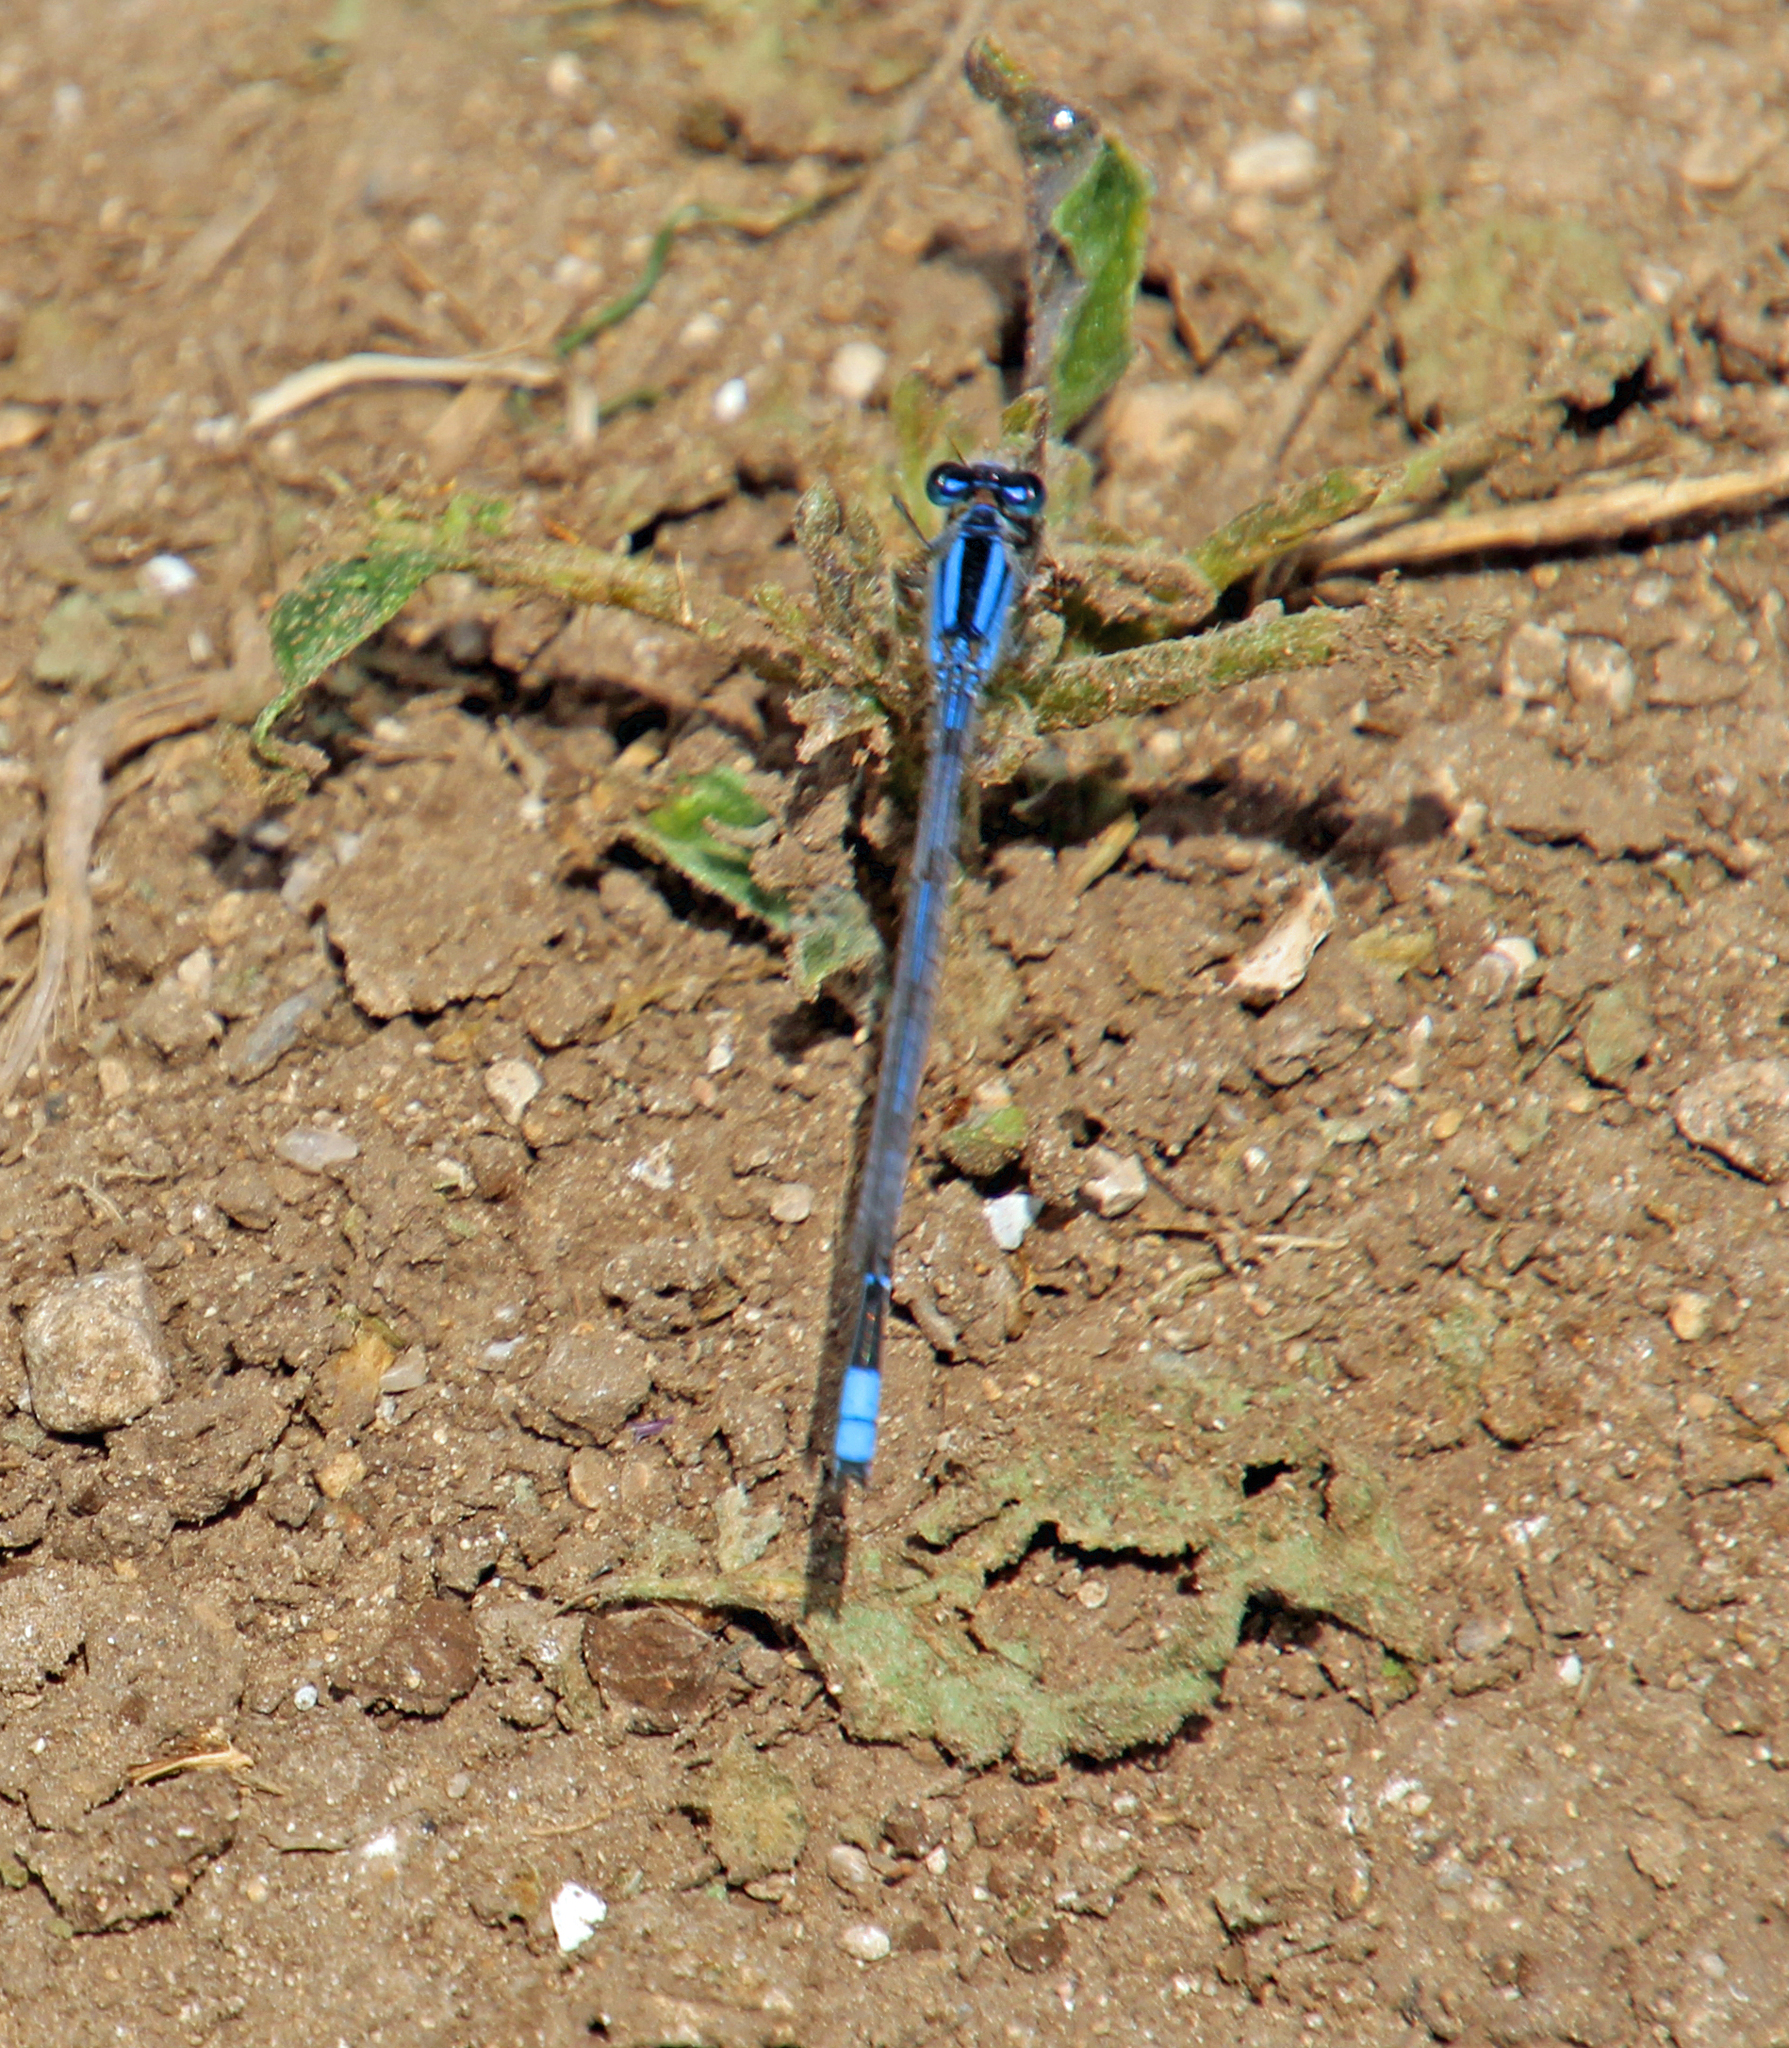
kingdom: Animalia
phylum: Arthropoda
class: Insecta
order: Odonata
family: Coenagrionidae
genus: Enallagma
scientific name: Enallagma civile
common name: Damselfly
